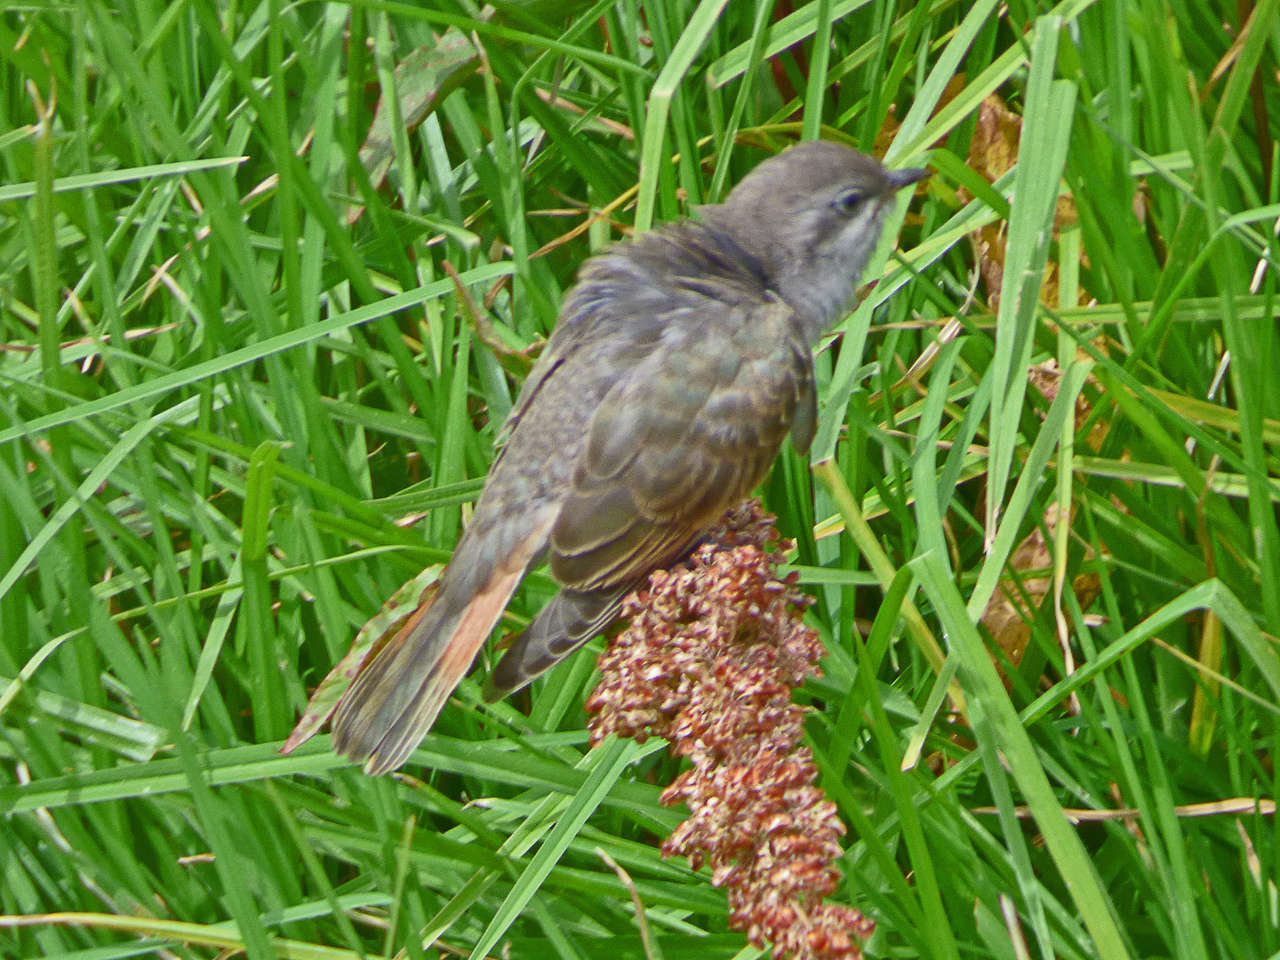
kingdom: Animalia
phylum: Chordata
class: Aves
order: Cuculiformes
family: Cuculidae
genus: Chrysococcyx
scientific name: Chrysococcyx basalis
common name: Horsfield's bronze cuckoo
